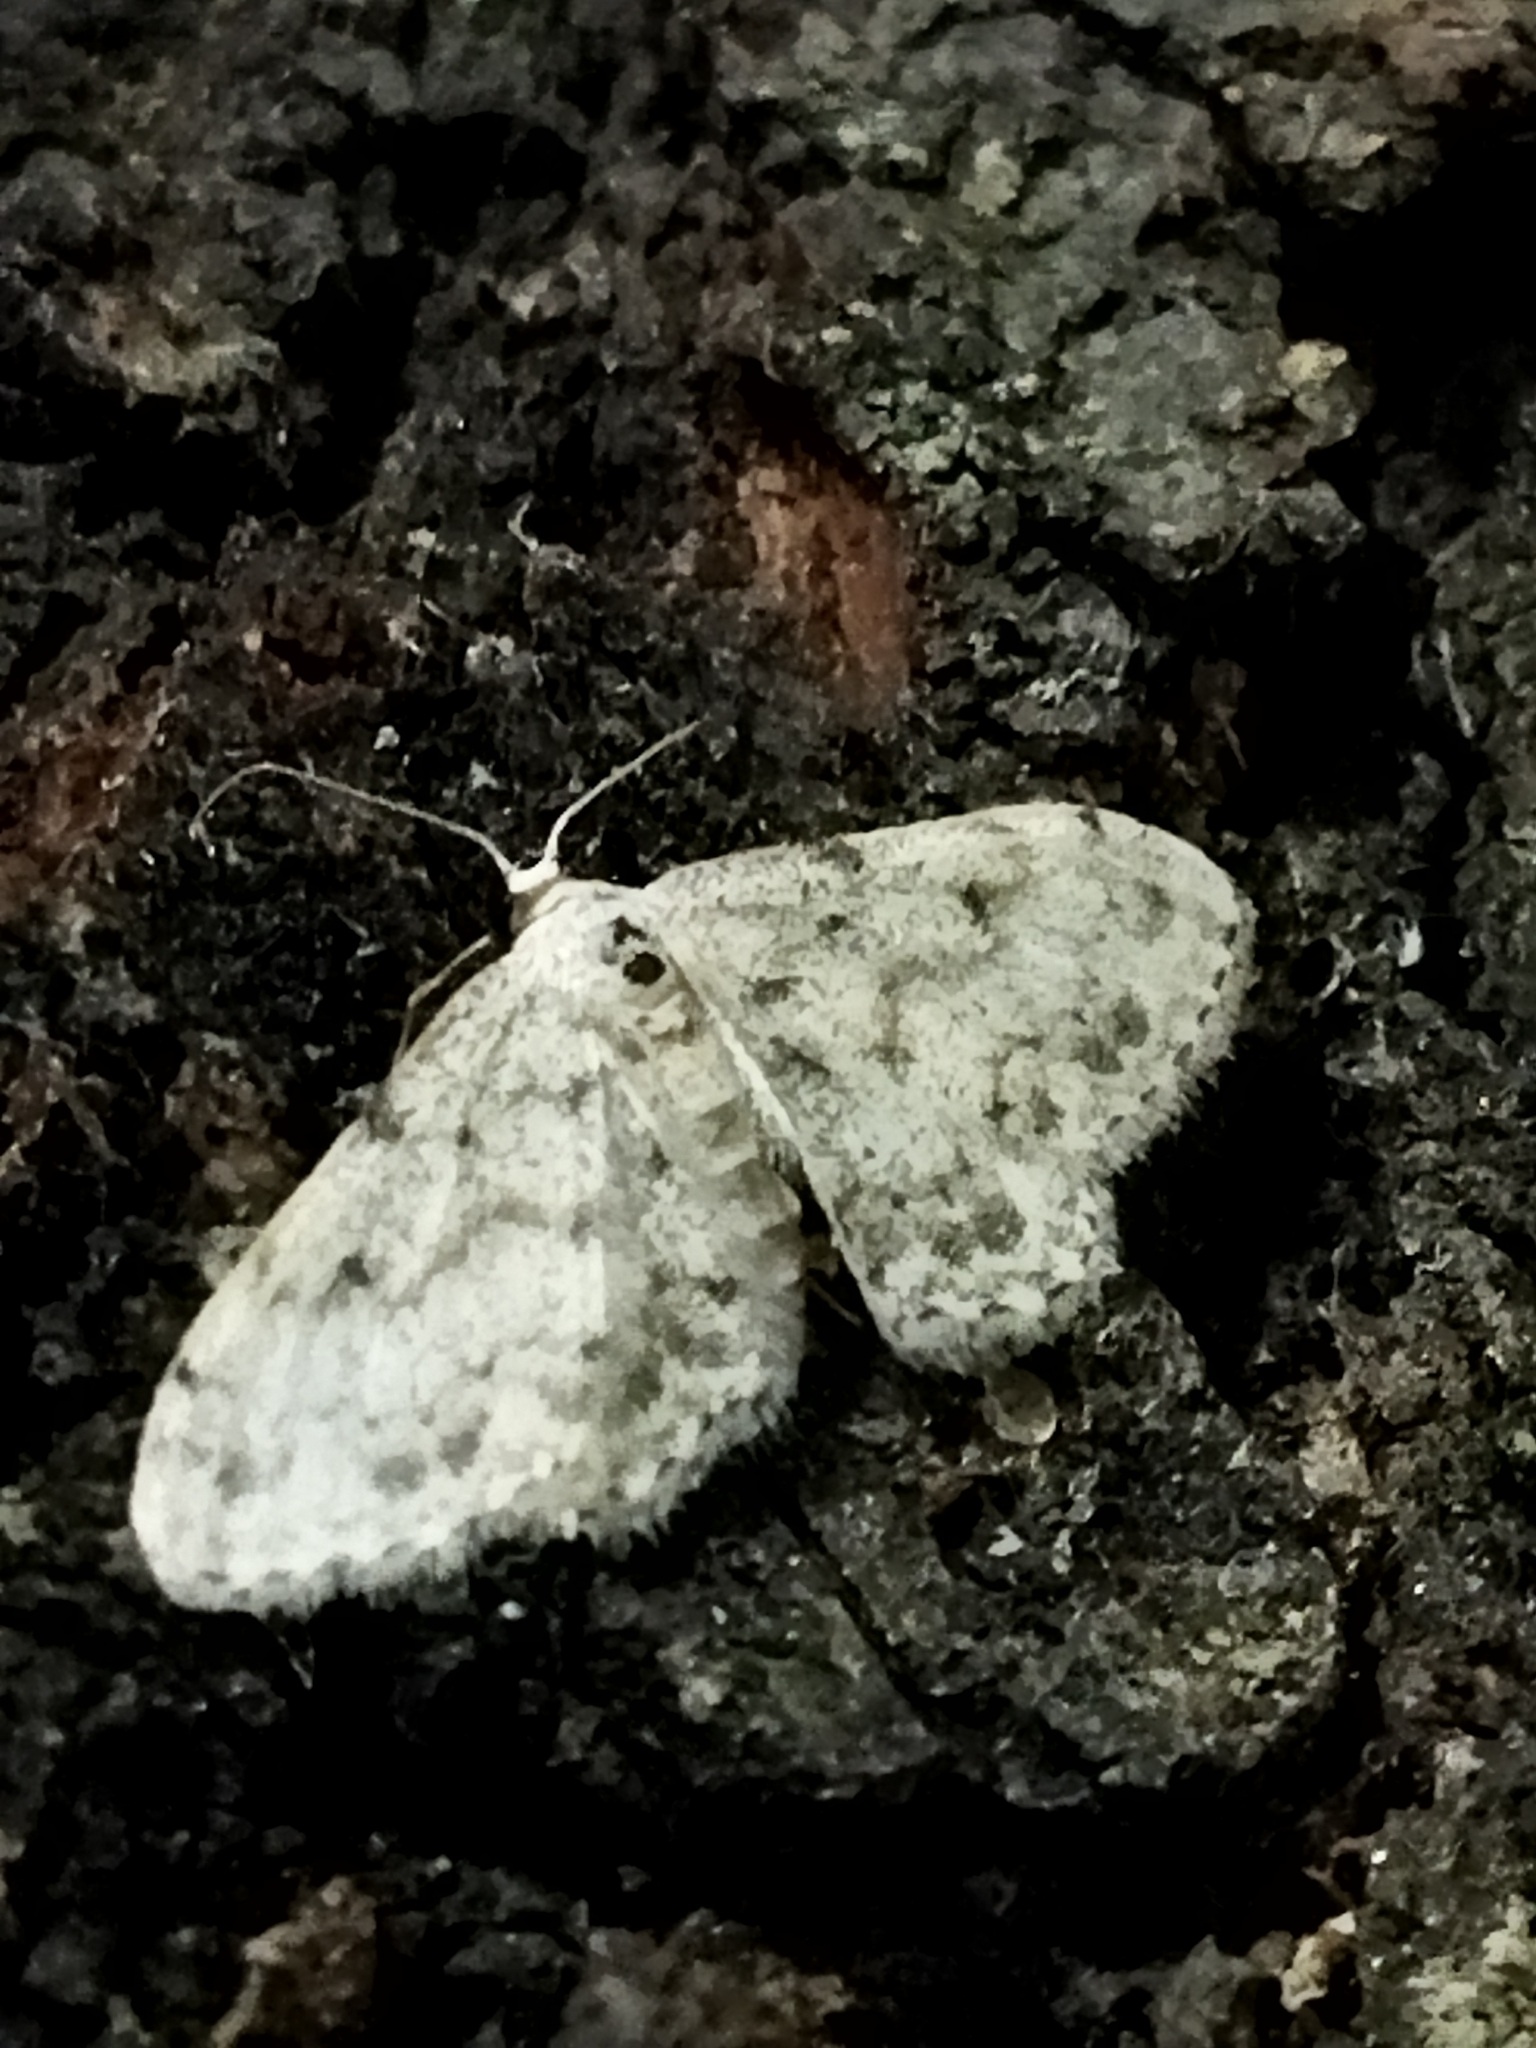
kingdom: Animalia
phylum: Arthropoda
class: Insecta
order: Lepidoptera
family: Geometridae
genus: Idaea
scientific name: Idaea camparia
